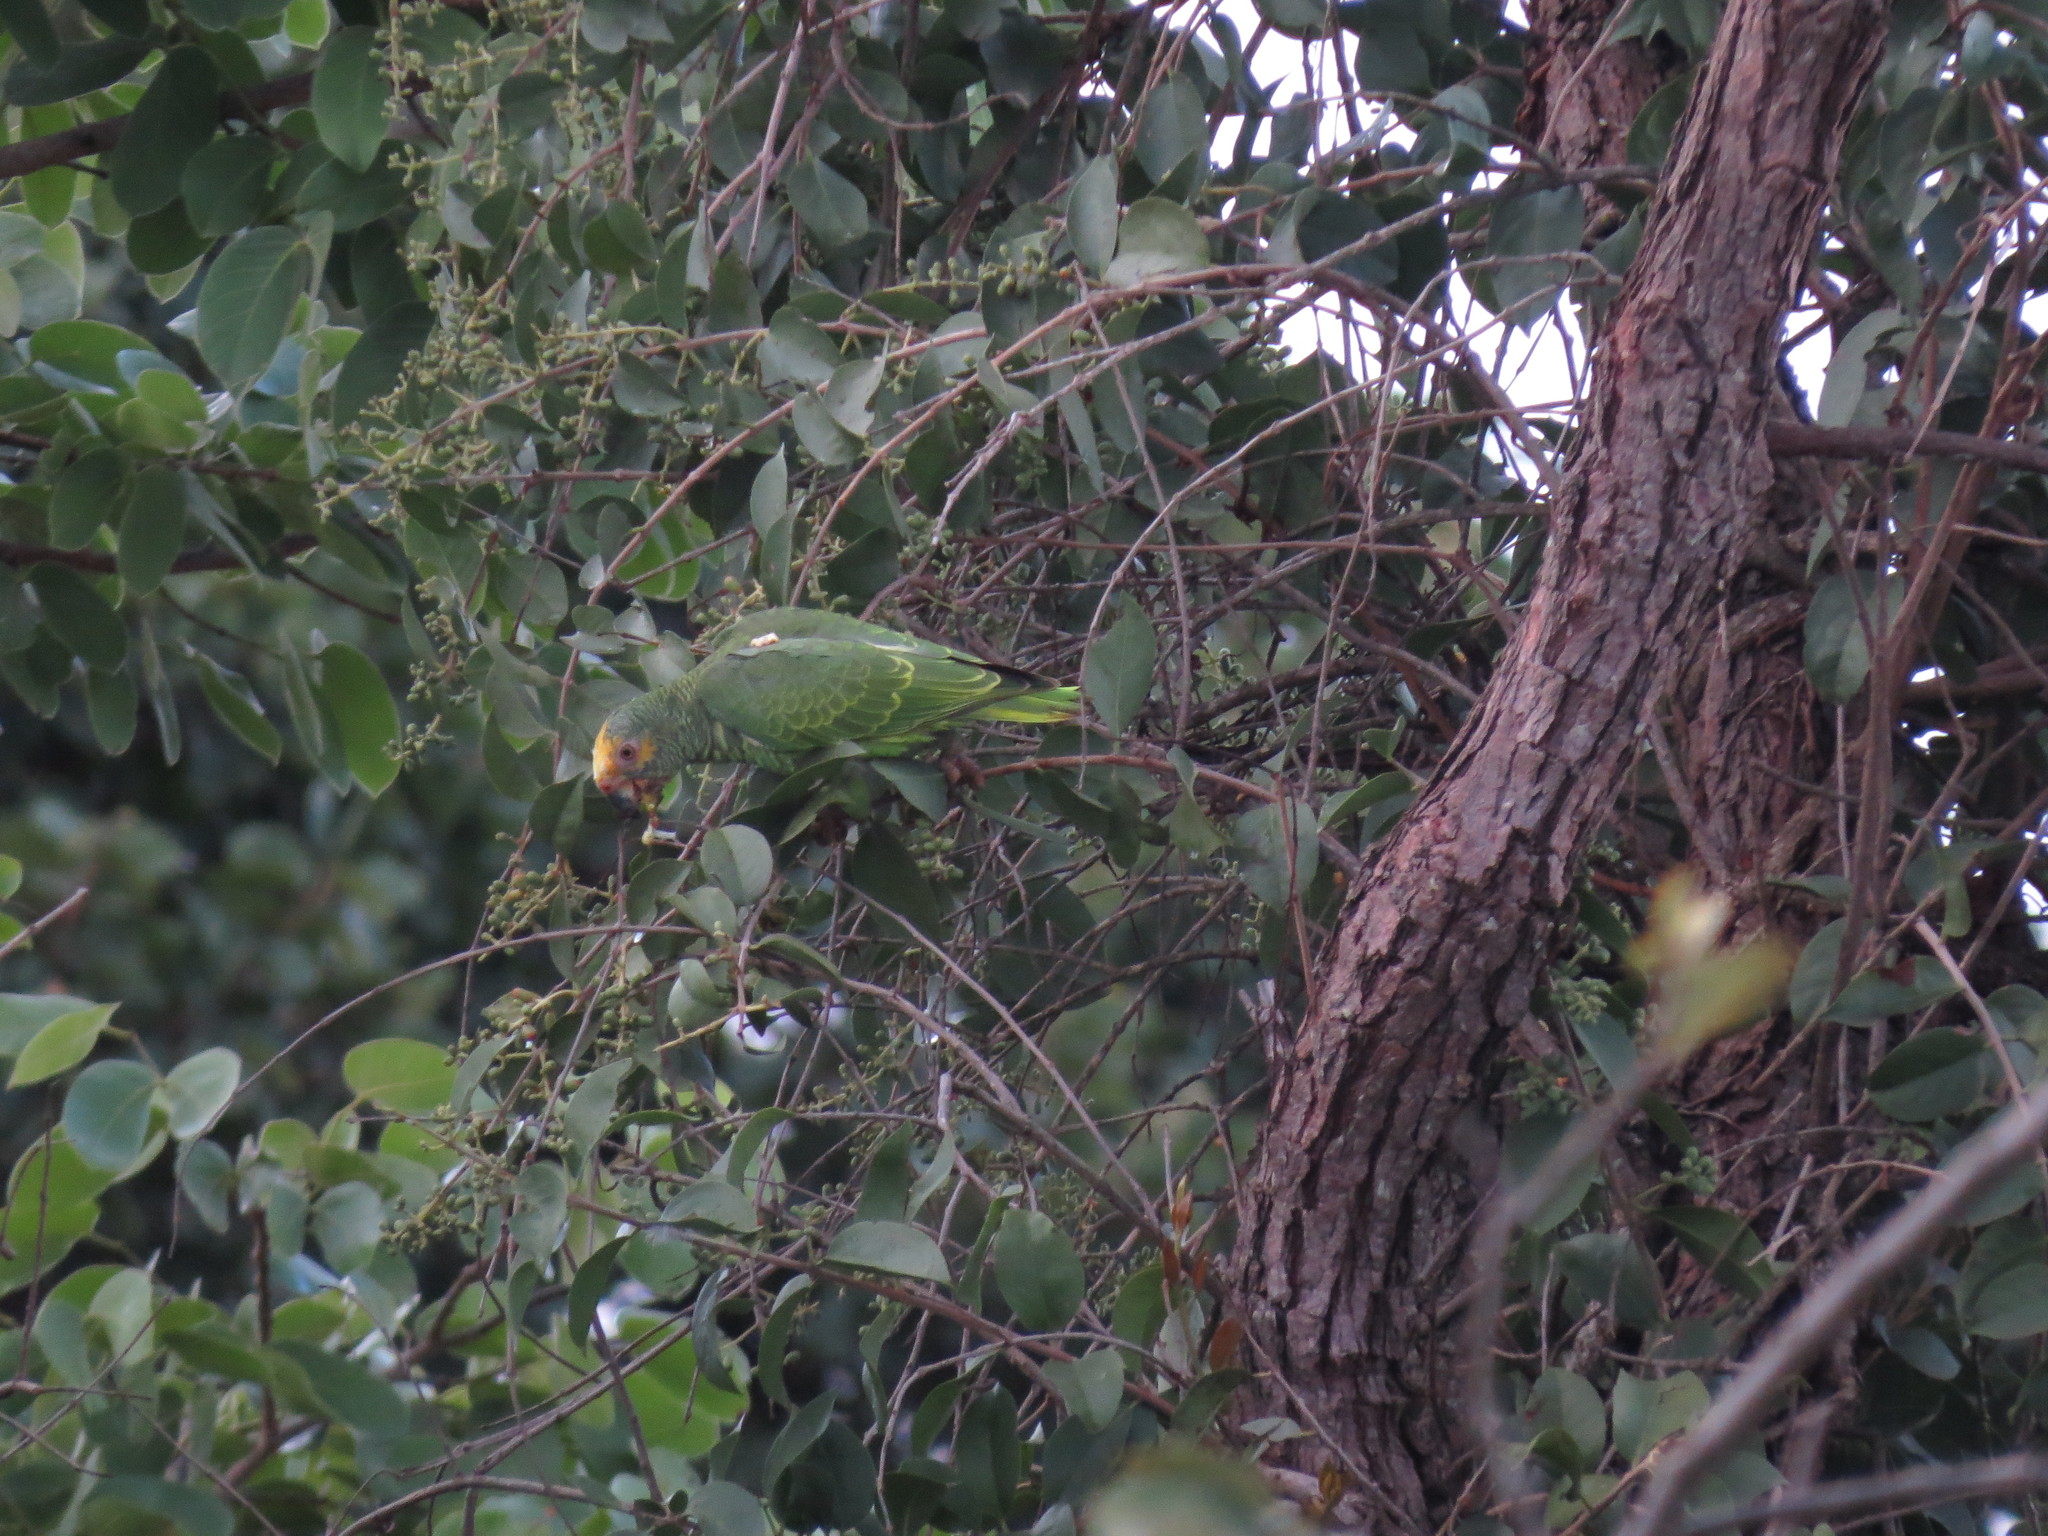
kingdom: Animalia
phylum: Chordata
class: Aves
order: Psittaciformes
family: Psittacidae
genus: Amazona
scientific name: Amazona xanthops
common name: Yellow-faced amazon
